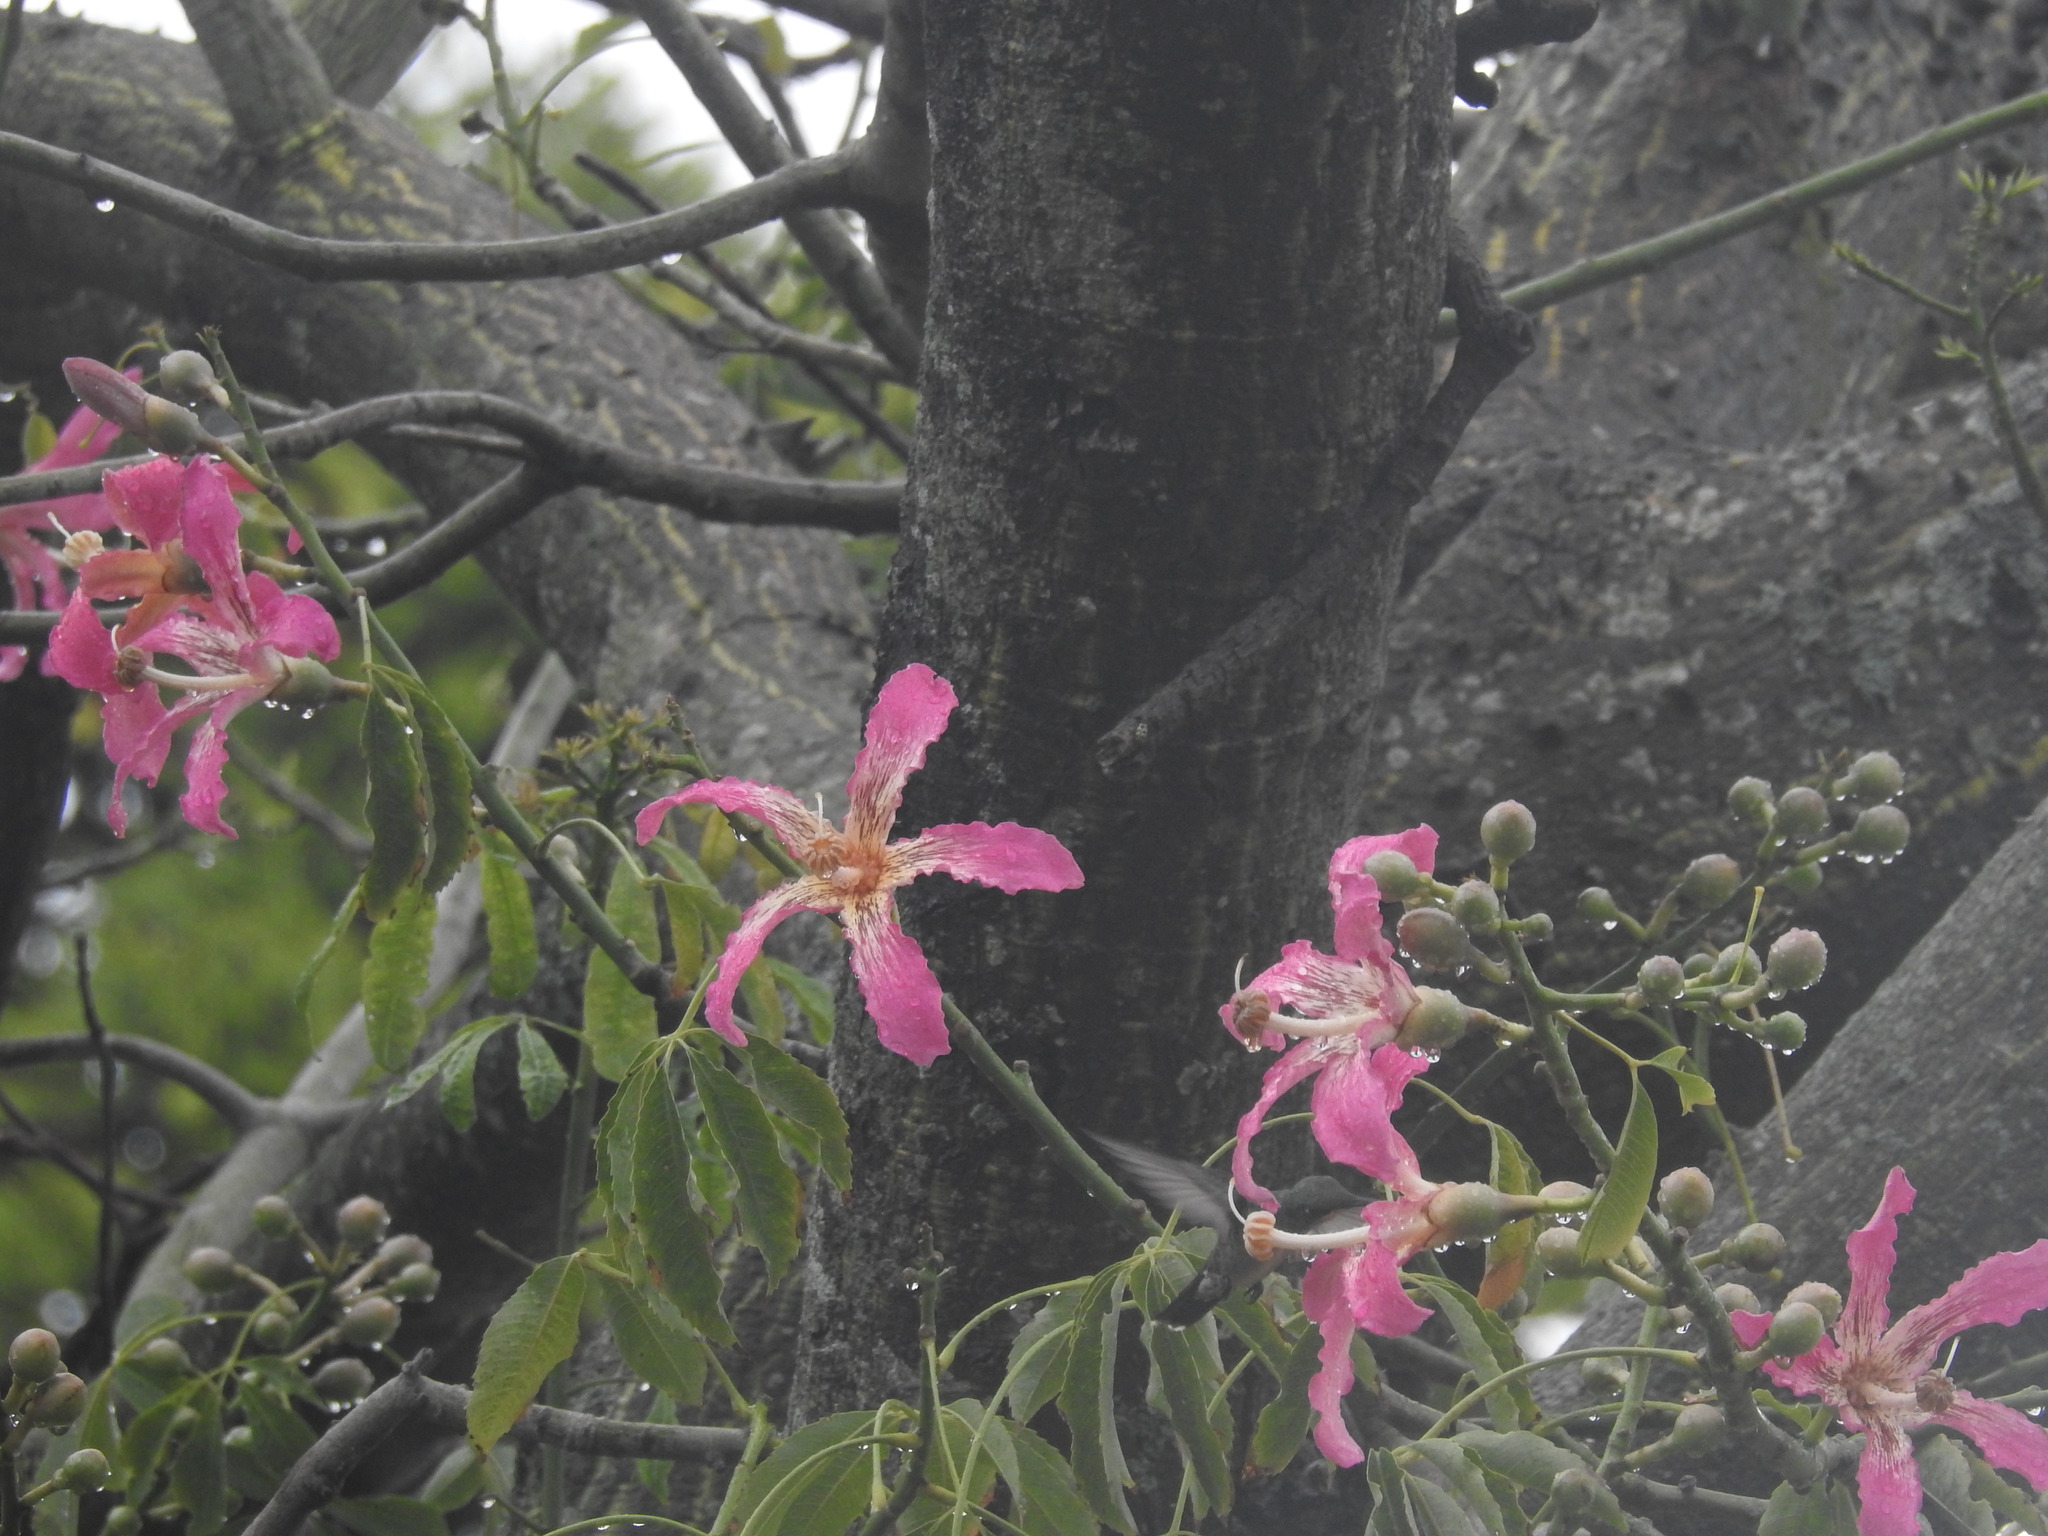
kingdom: Plantae
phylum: Tracheophyta
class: Magnoliopsida
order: Malvales
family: Malvaceae
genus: Ceiba
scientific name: Ceiba speciosa
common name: Silk-floss tree
